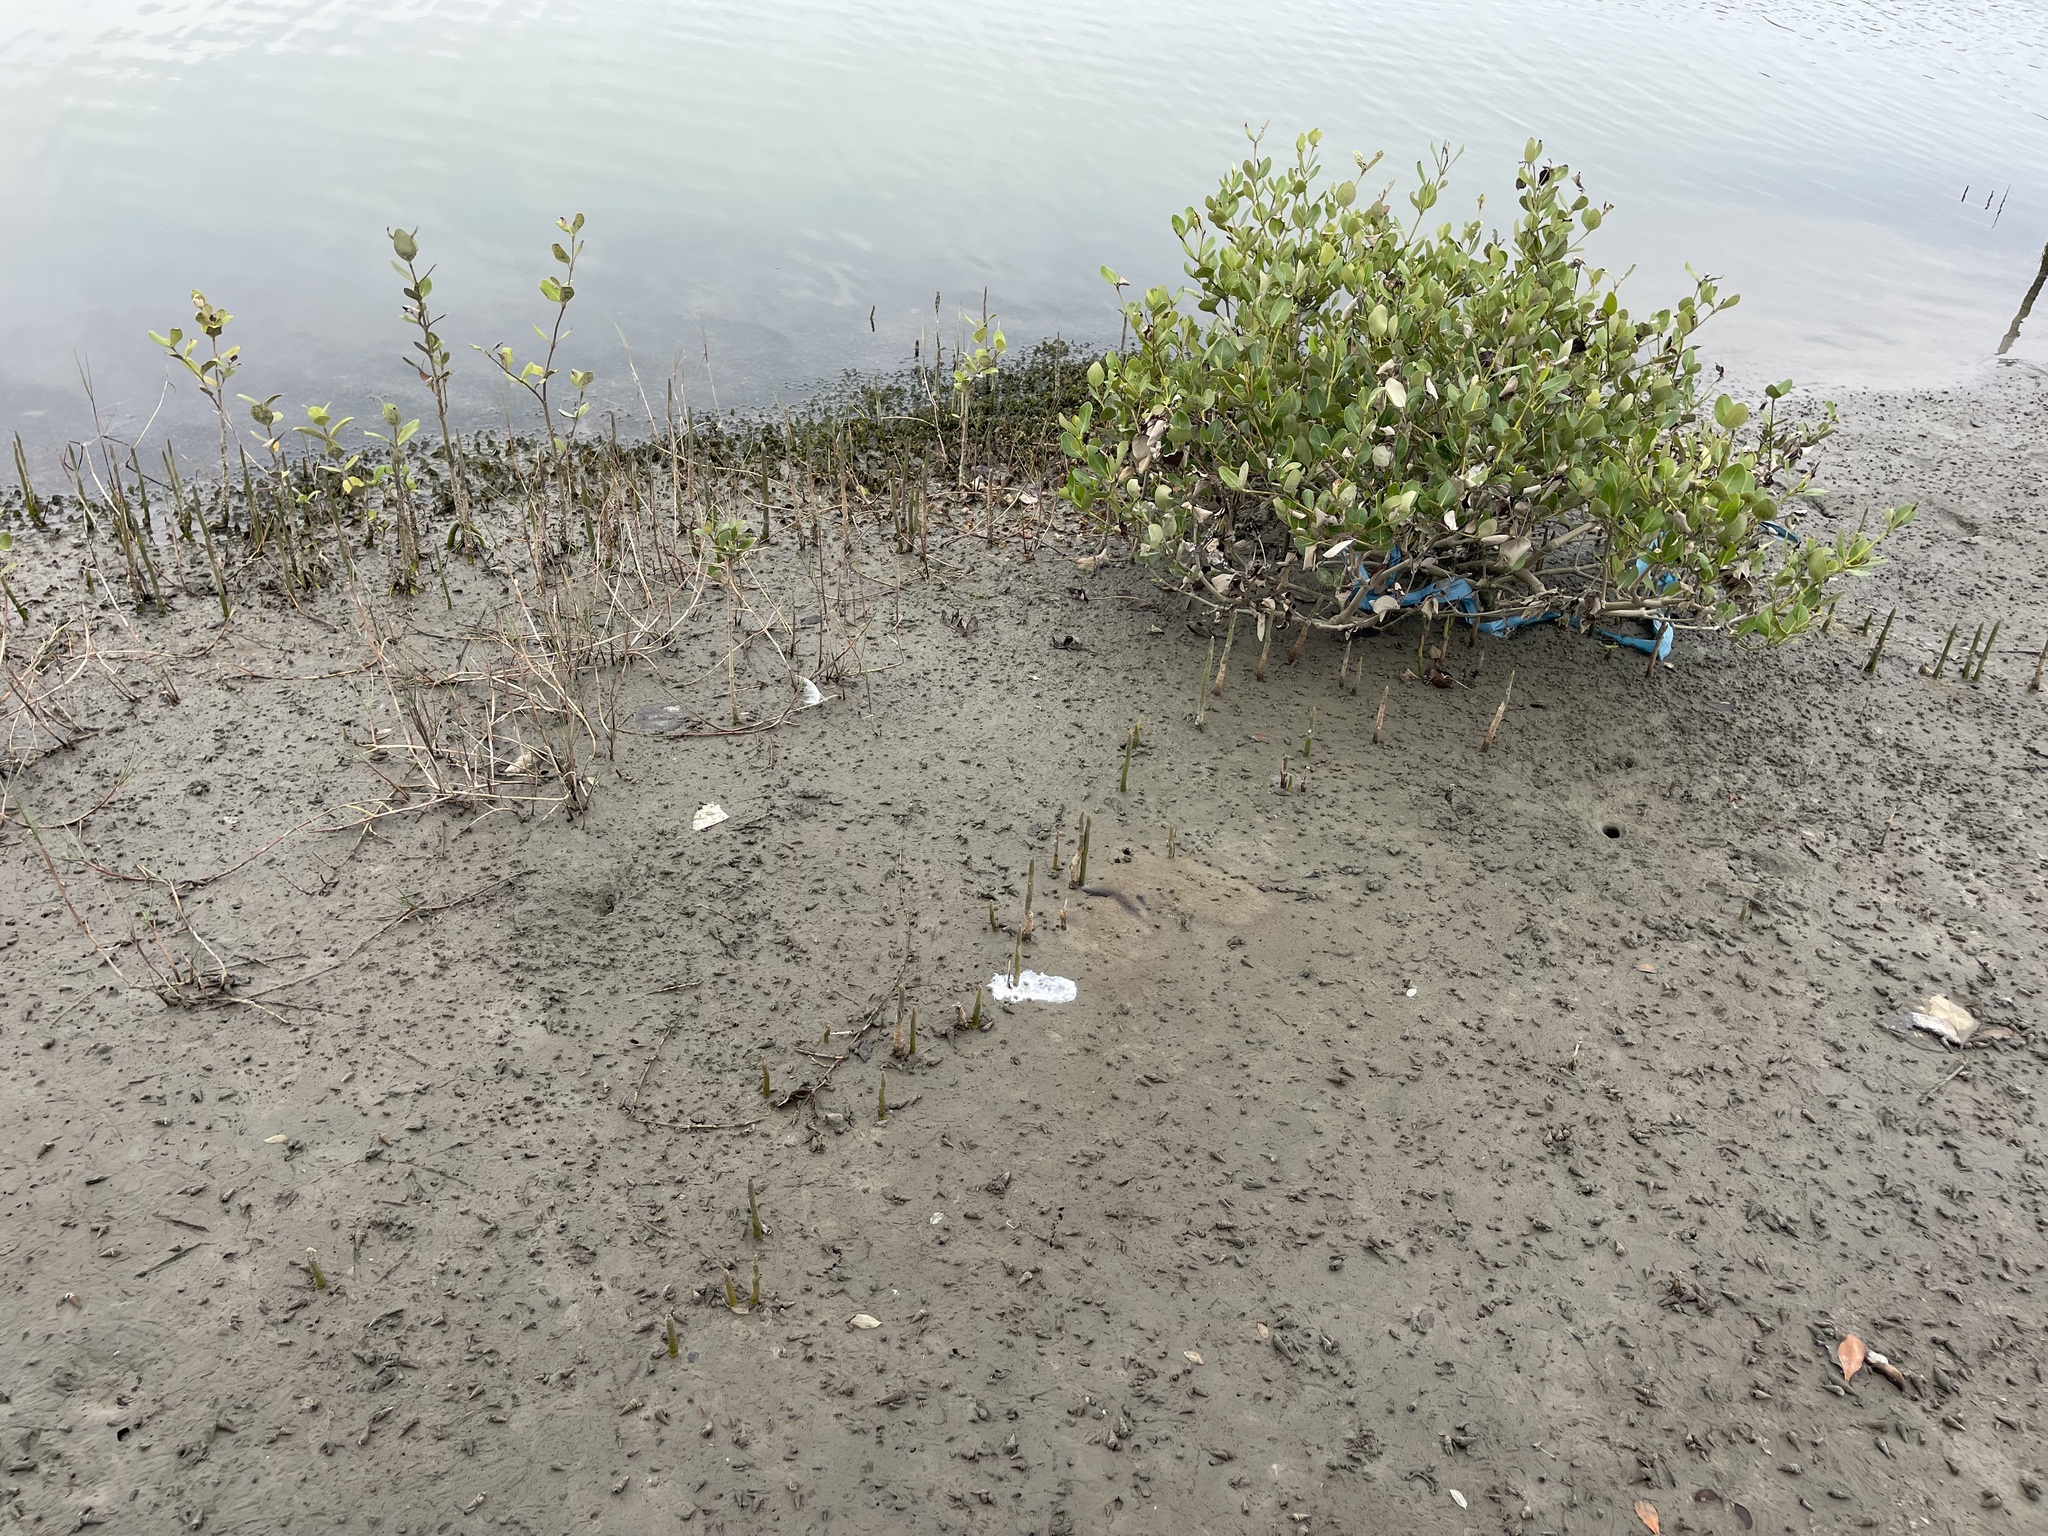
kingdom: Plantae
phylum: Tracheophyta
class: Magnoliopsida
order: Lamiales
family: Acanthaceae
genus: Avicennia
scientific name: Avicennia marina
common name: Gray mangrove
